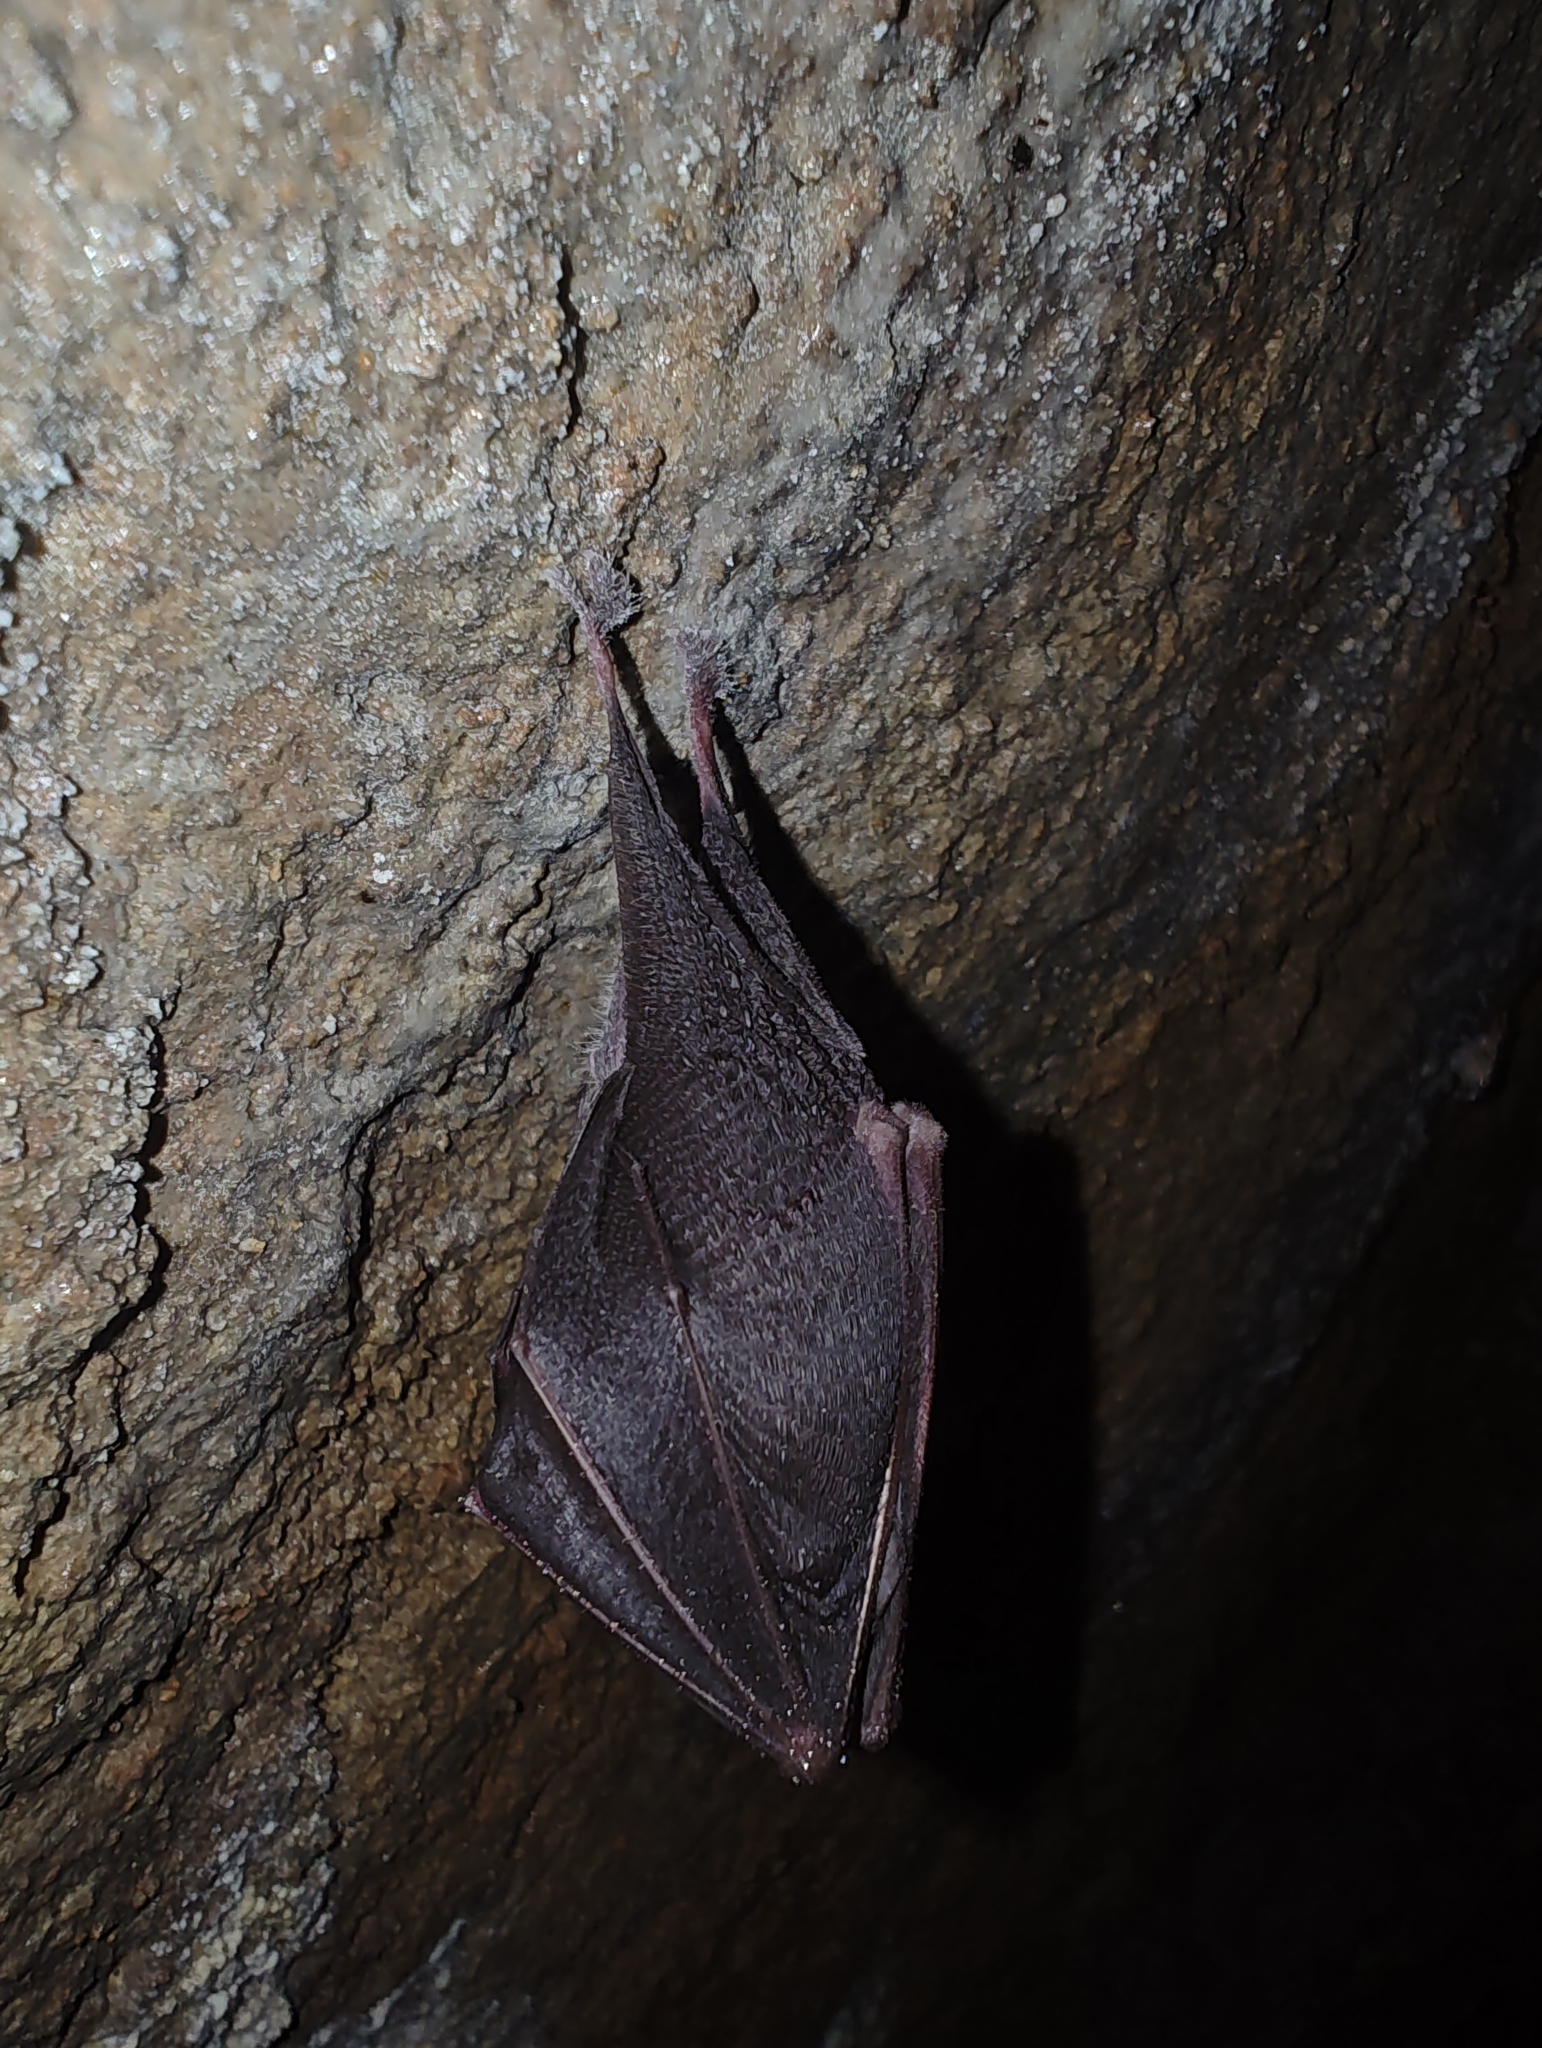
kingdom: Animalia
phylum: Chordata
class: Mammalia
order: Chiroptera
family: Rhinolophidae
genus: Rhinolophus
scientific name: Rhinolophus hipposideros
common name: Lesser horseshoe bat
